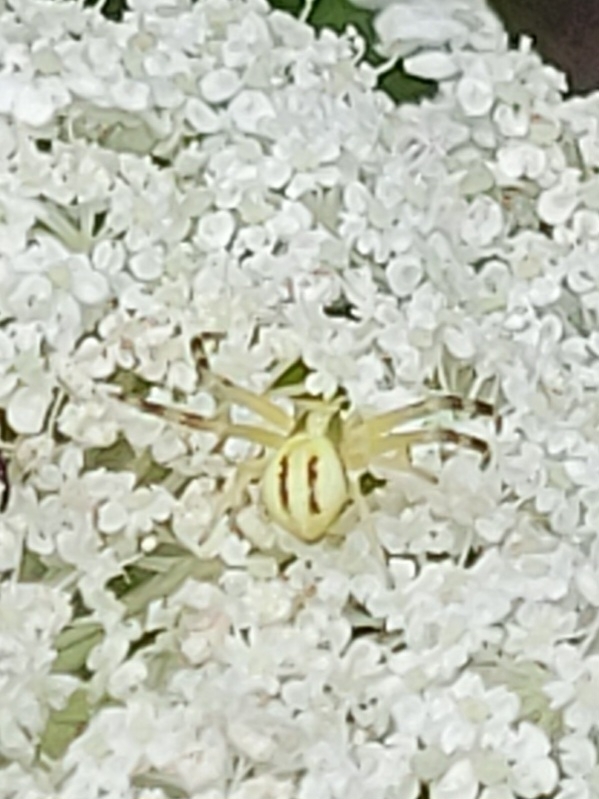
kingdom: Animalia
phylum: Arthropoda
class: Arachnida
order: Araneae
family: Thomisidae
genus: Misumena
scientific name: Misumena vatia
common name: Goldenrod crab spider
